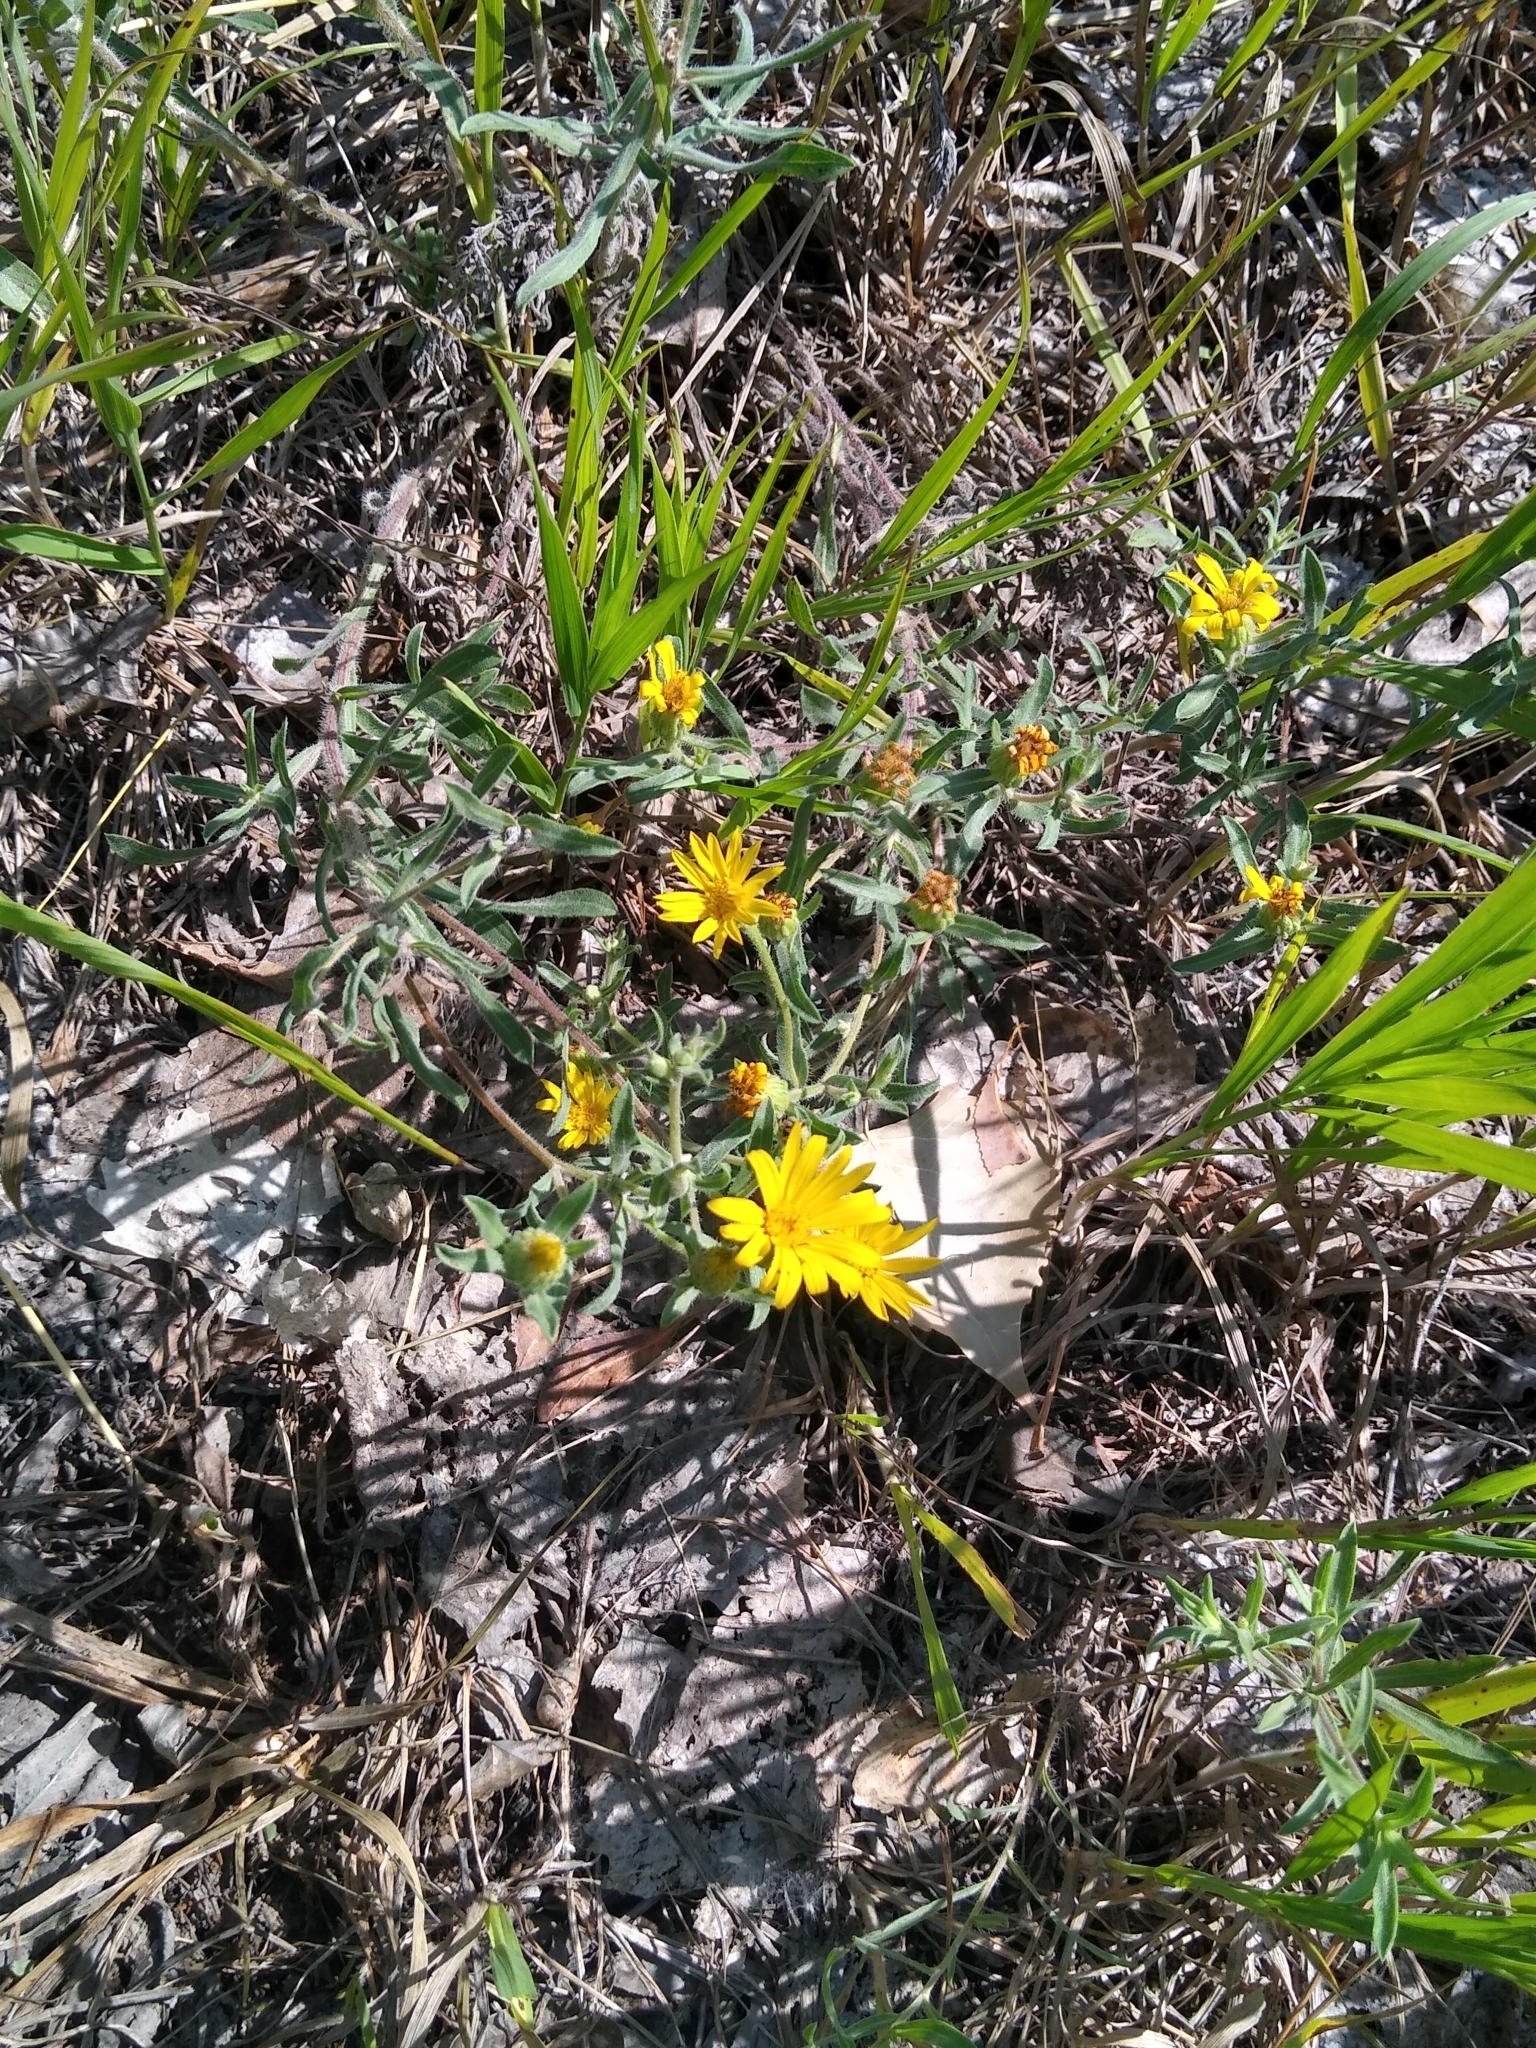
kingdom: Plantae
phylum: Tracheophyta
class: Magnoliopsida
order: Asterales
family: Asteraceae
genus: Heterotheca
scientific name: Heterotheca villosa
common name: Hairy false goldenaster
